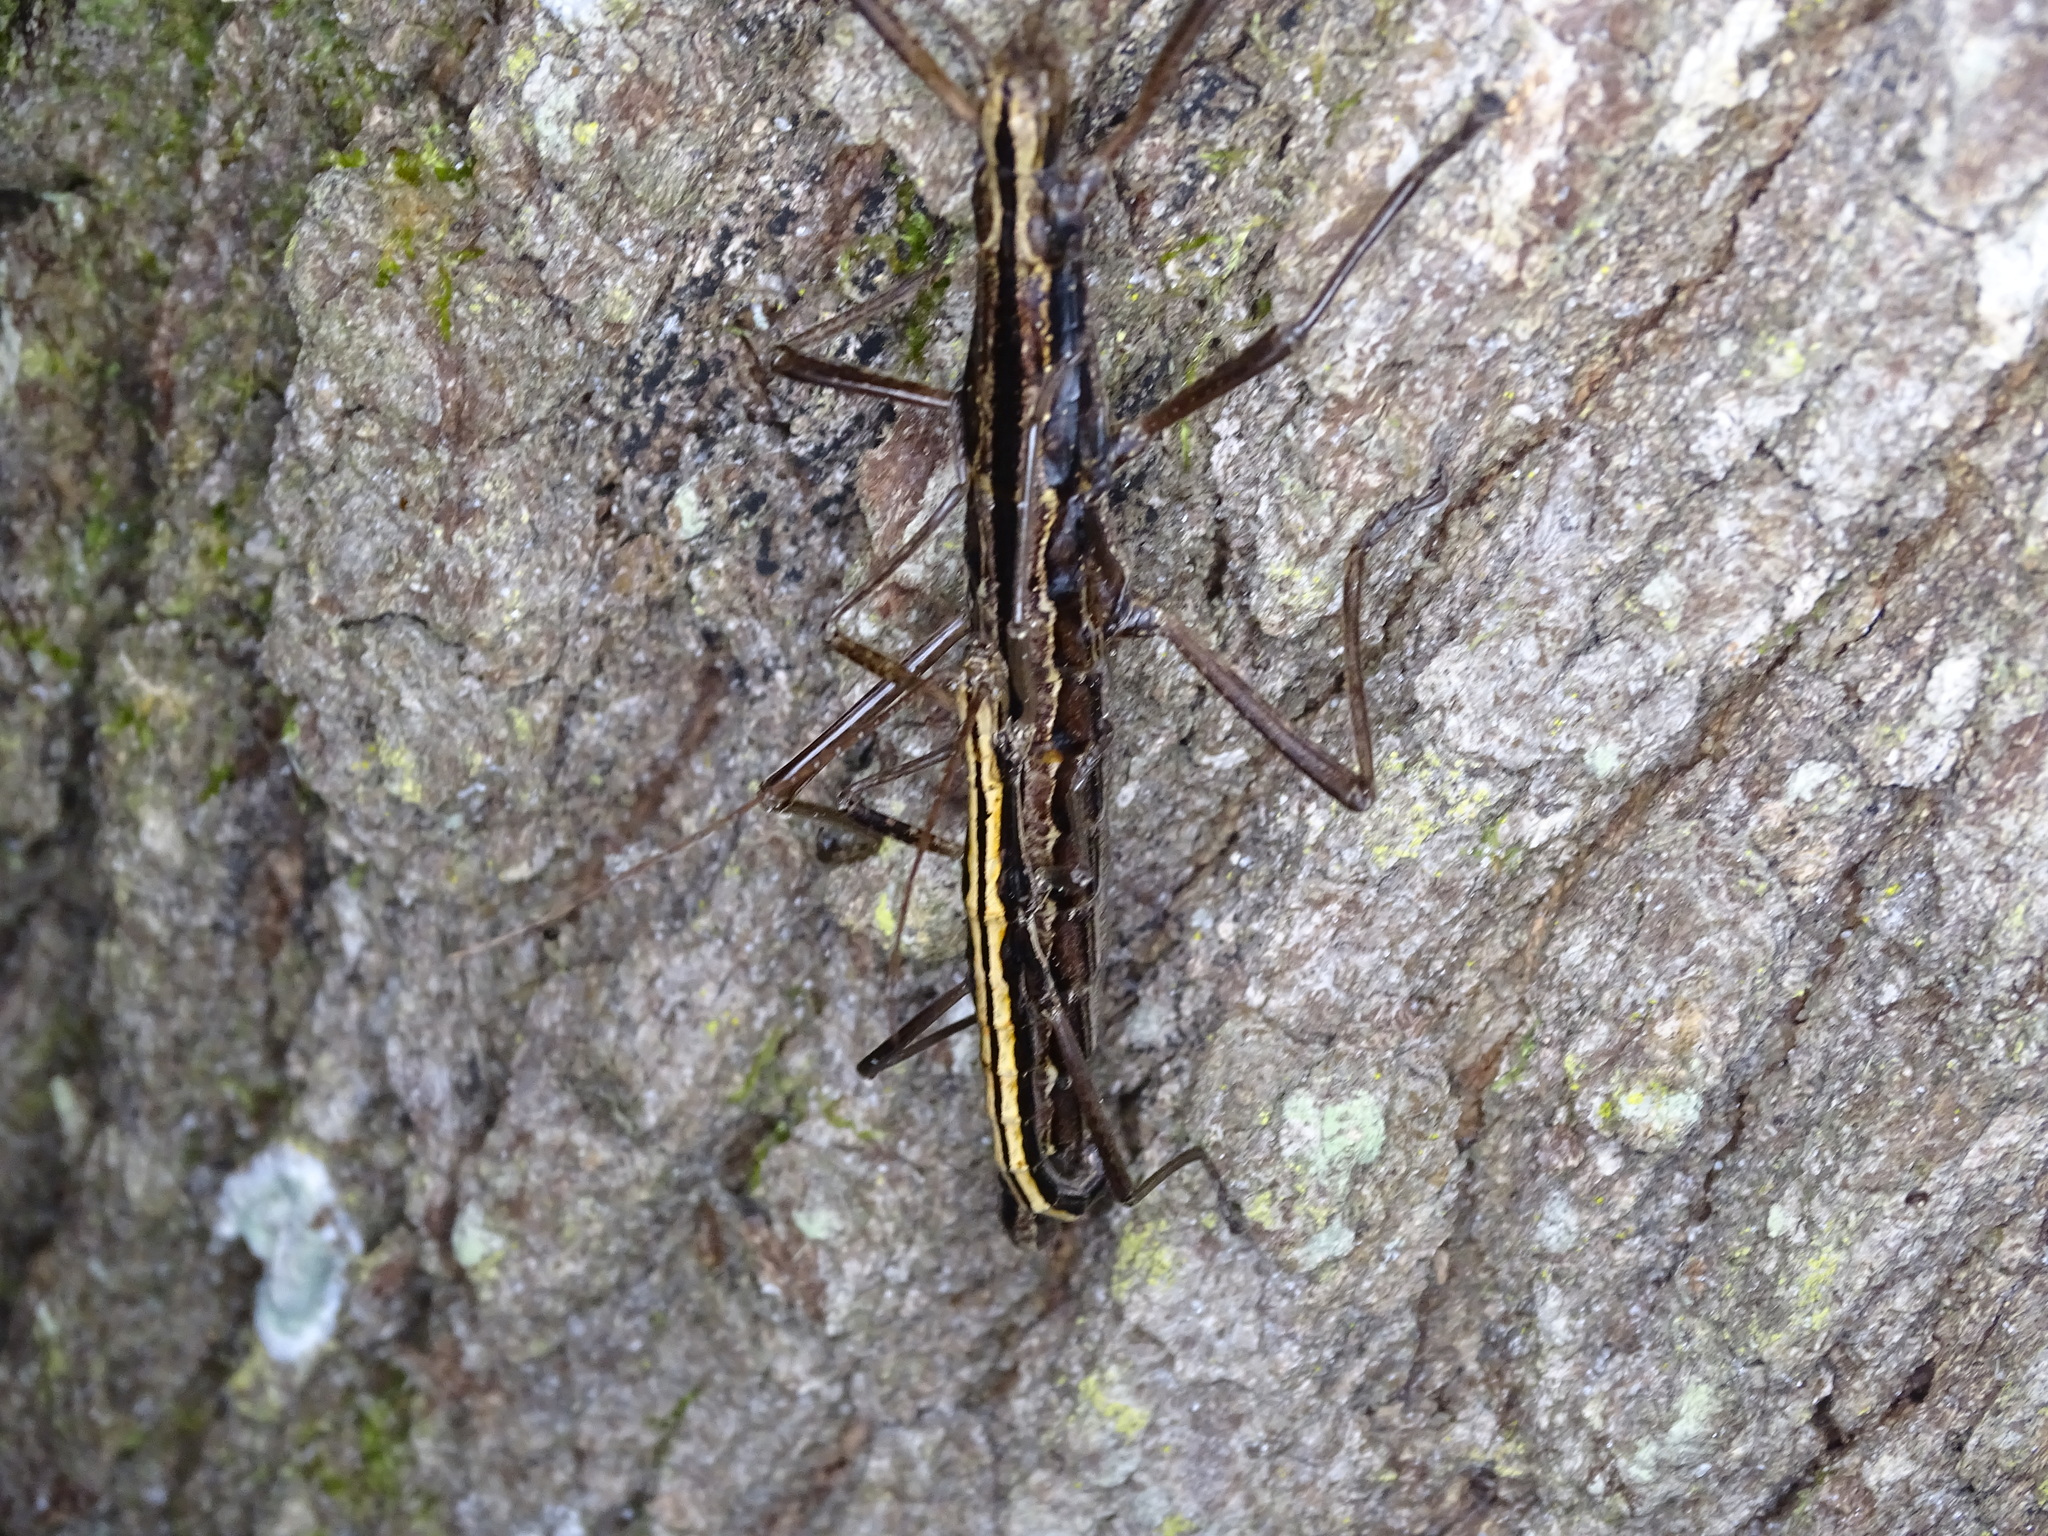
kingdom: Animalia
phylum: Arthropoda
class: Insecta
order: Phasmida
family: Pseudophasmatidae
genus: Anisomorpha
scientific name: Anisomorpha buprestoides
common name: Florida stick insect
